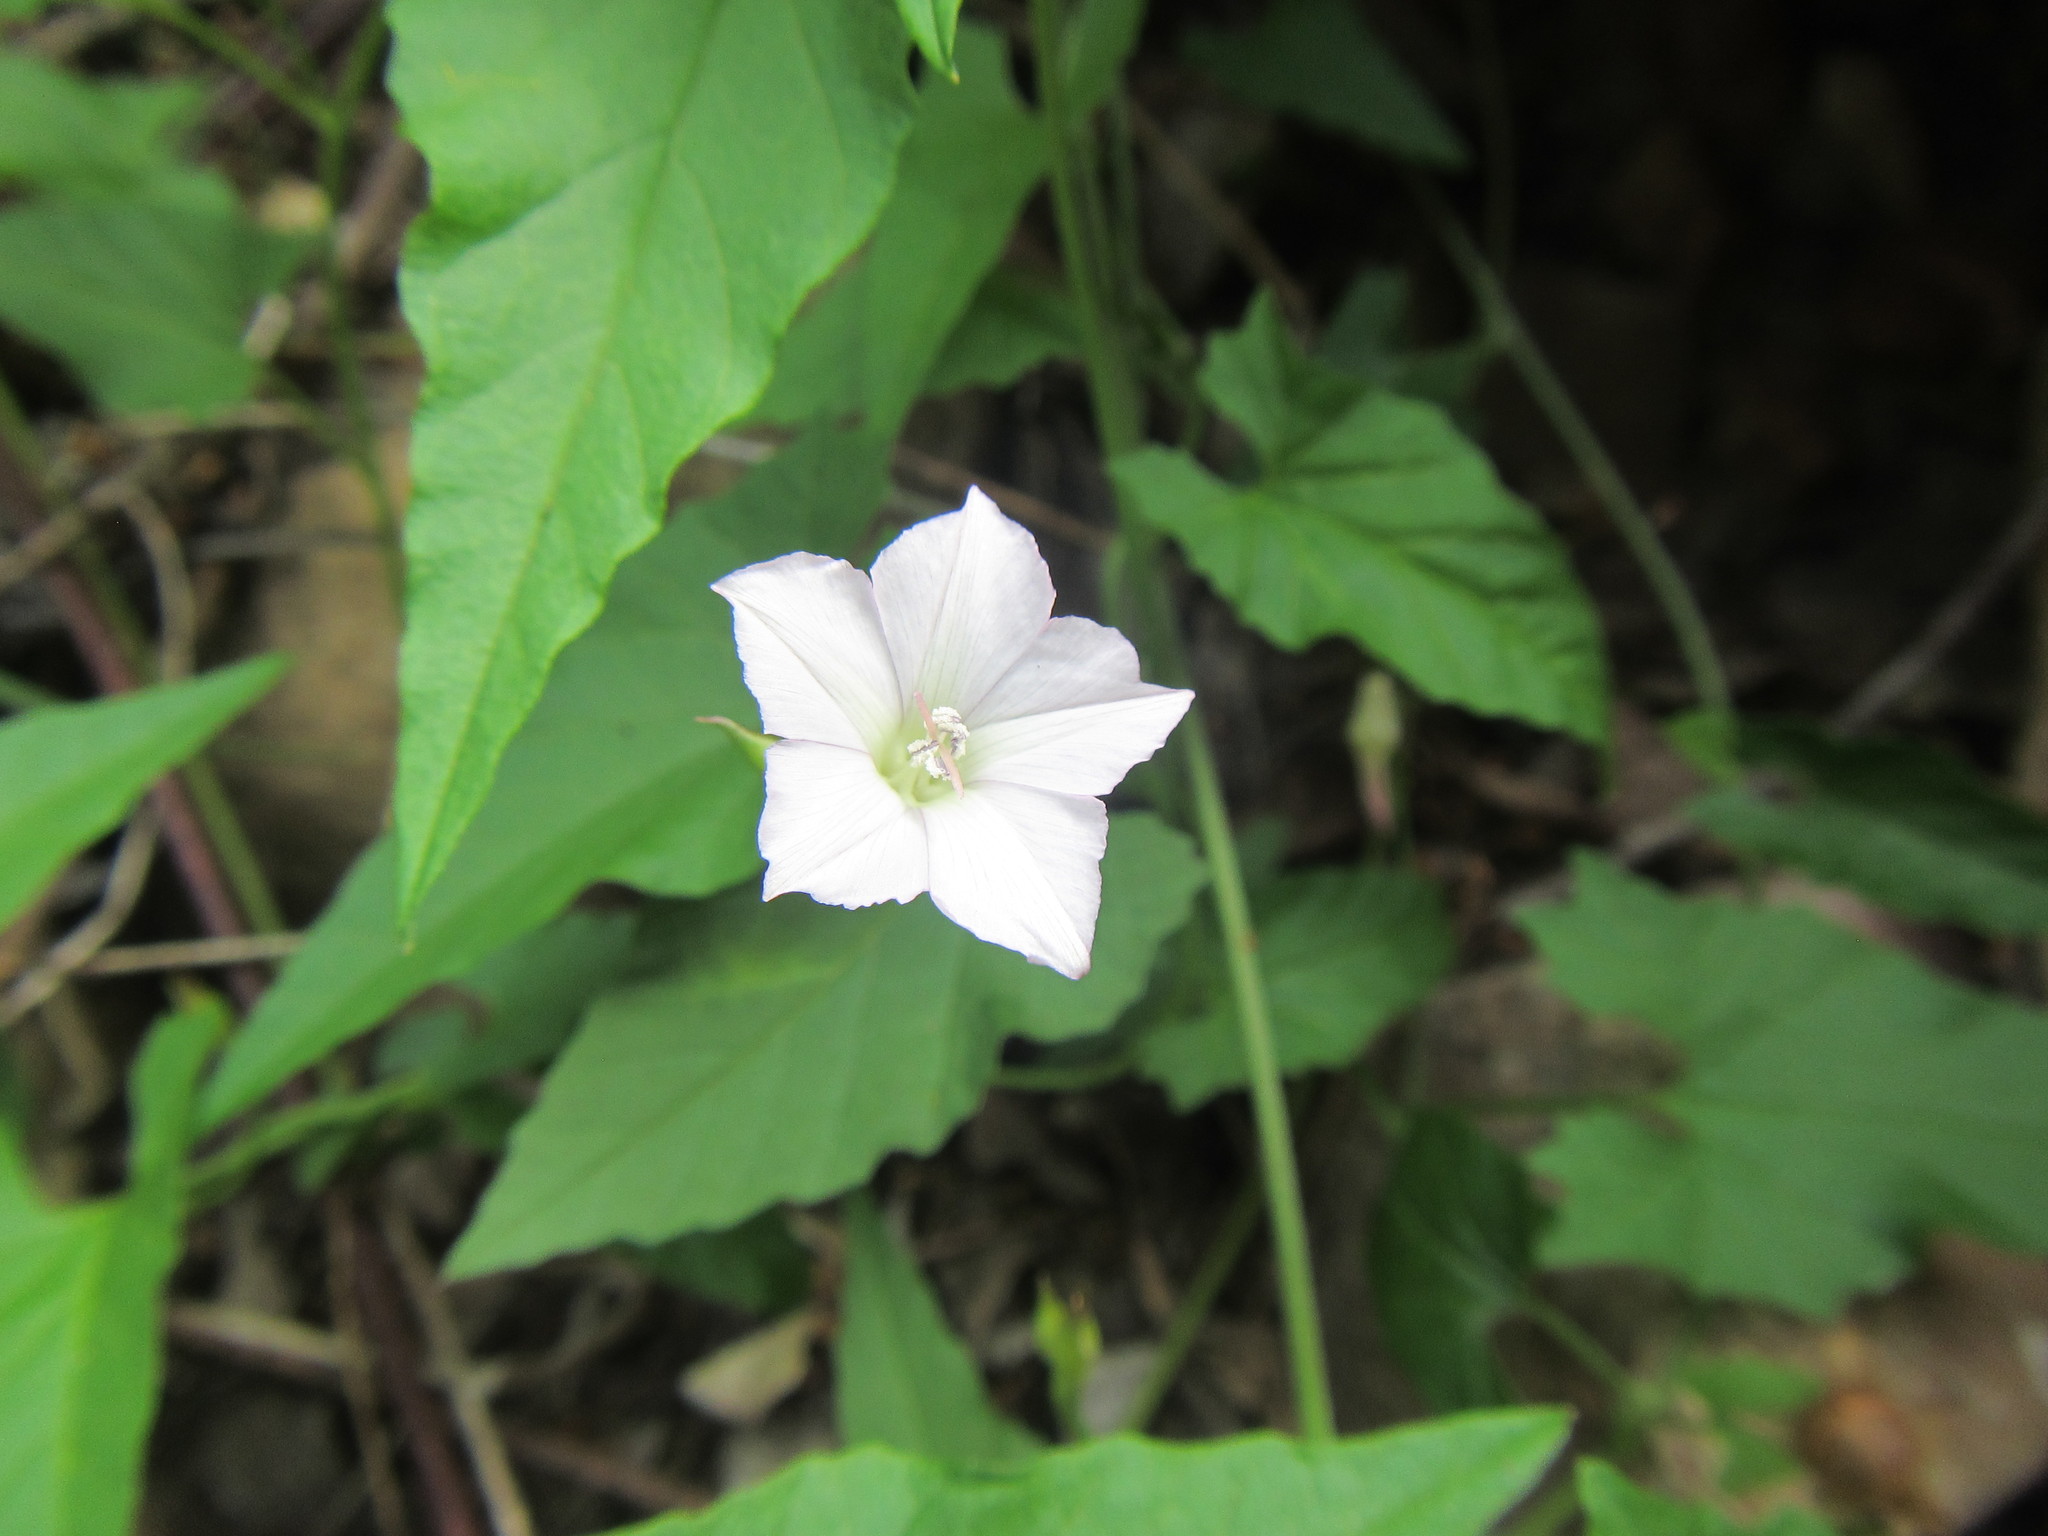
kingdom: Plantae
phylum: Tracheophyta
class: Magnoliopsida
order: Solanales
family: Convolvulaceae
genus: Convolvulus
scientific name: Convolvulus farinosus
